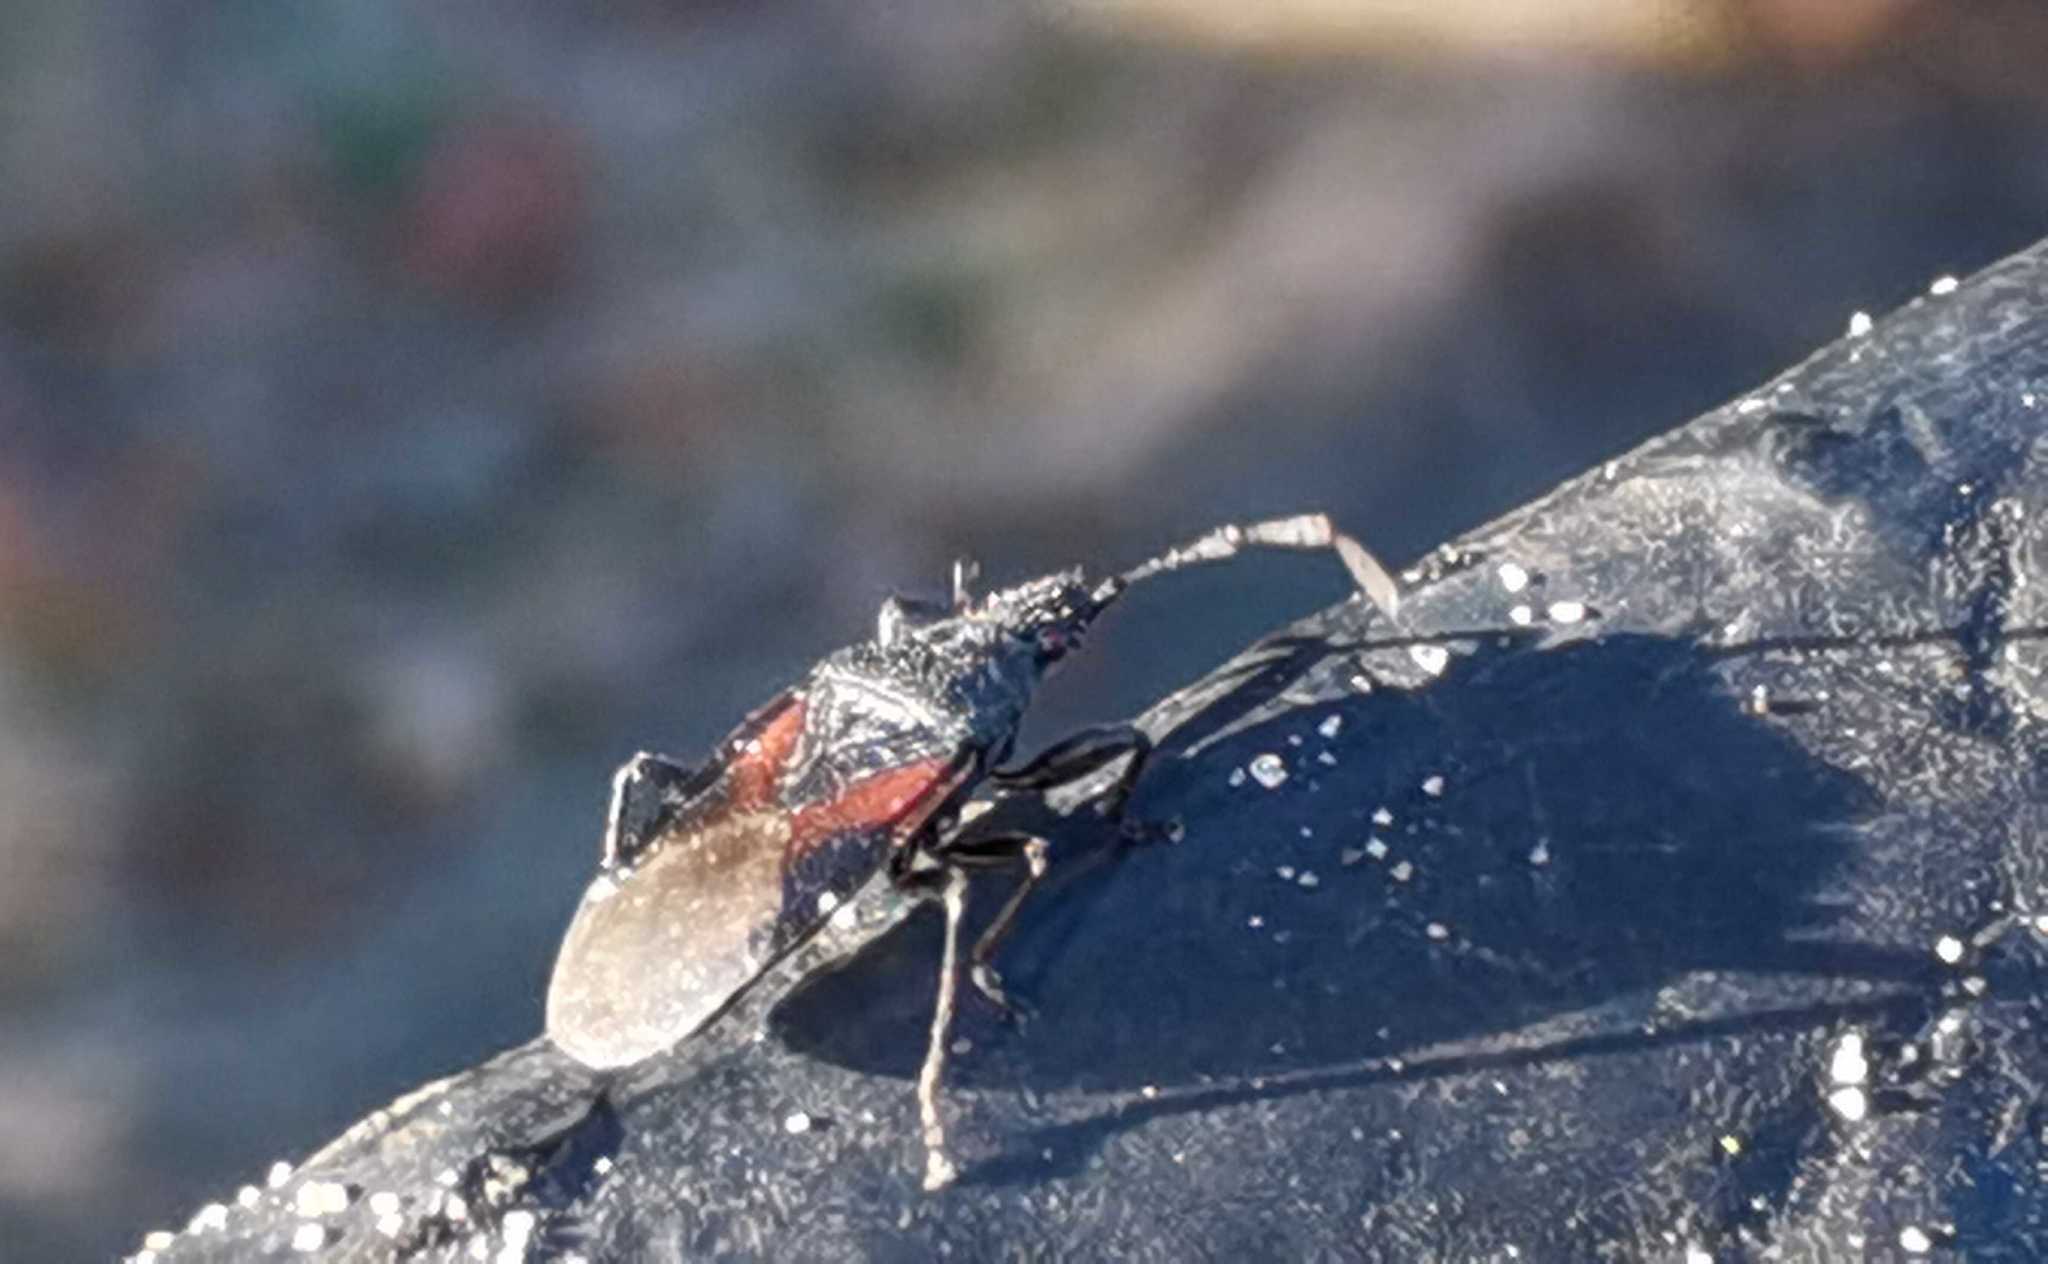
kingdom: Animalia
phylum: Arthropoda
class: Insecta
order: Hemiptera
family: Oxycarenidae
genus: Oxycarenus
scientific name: Oxycarenus lavaterae
